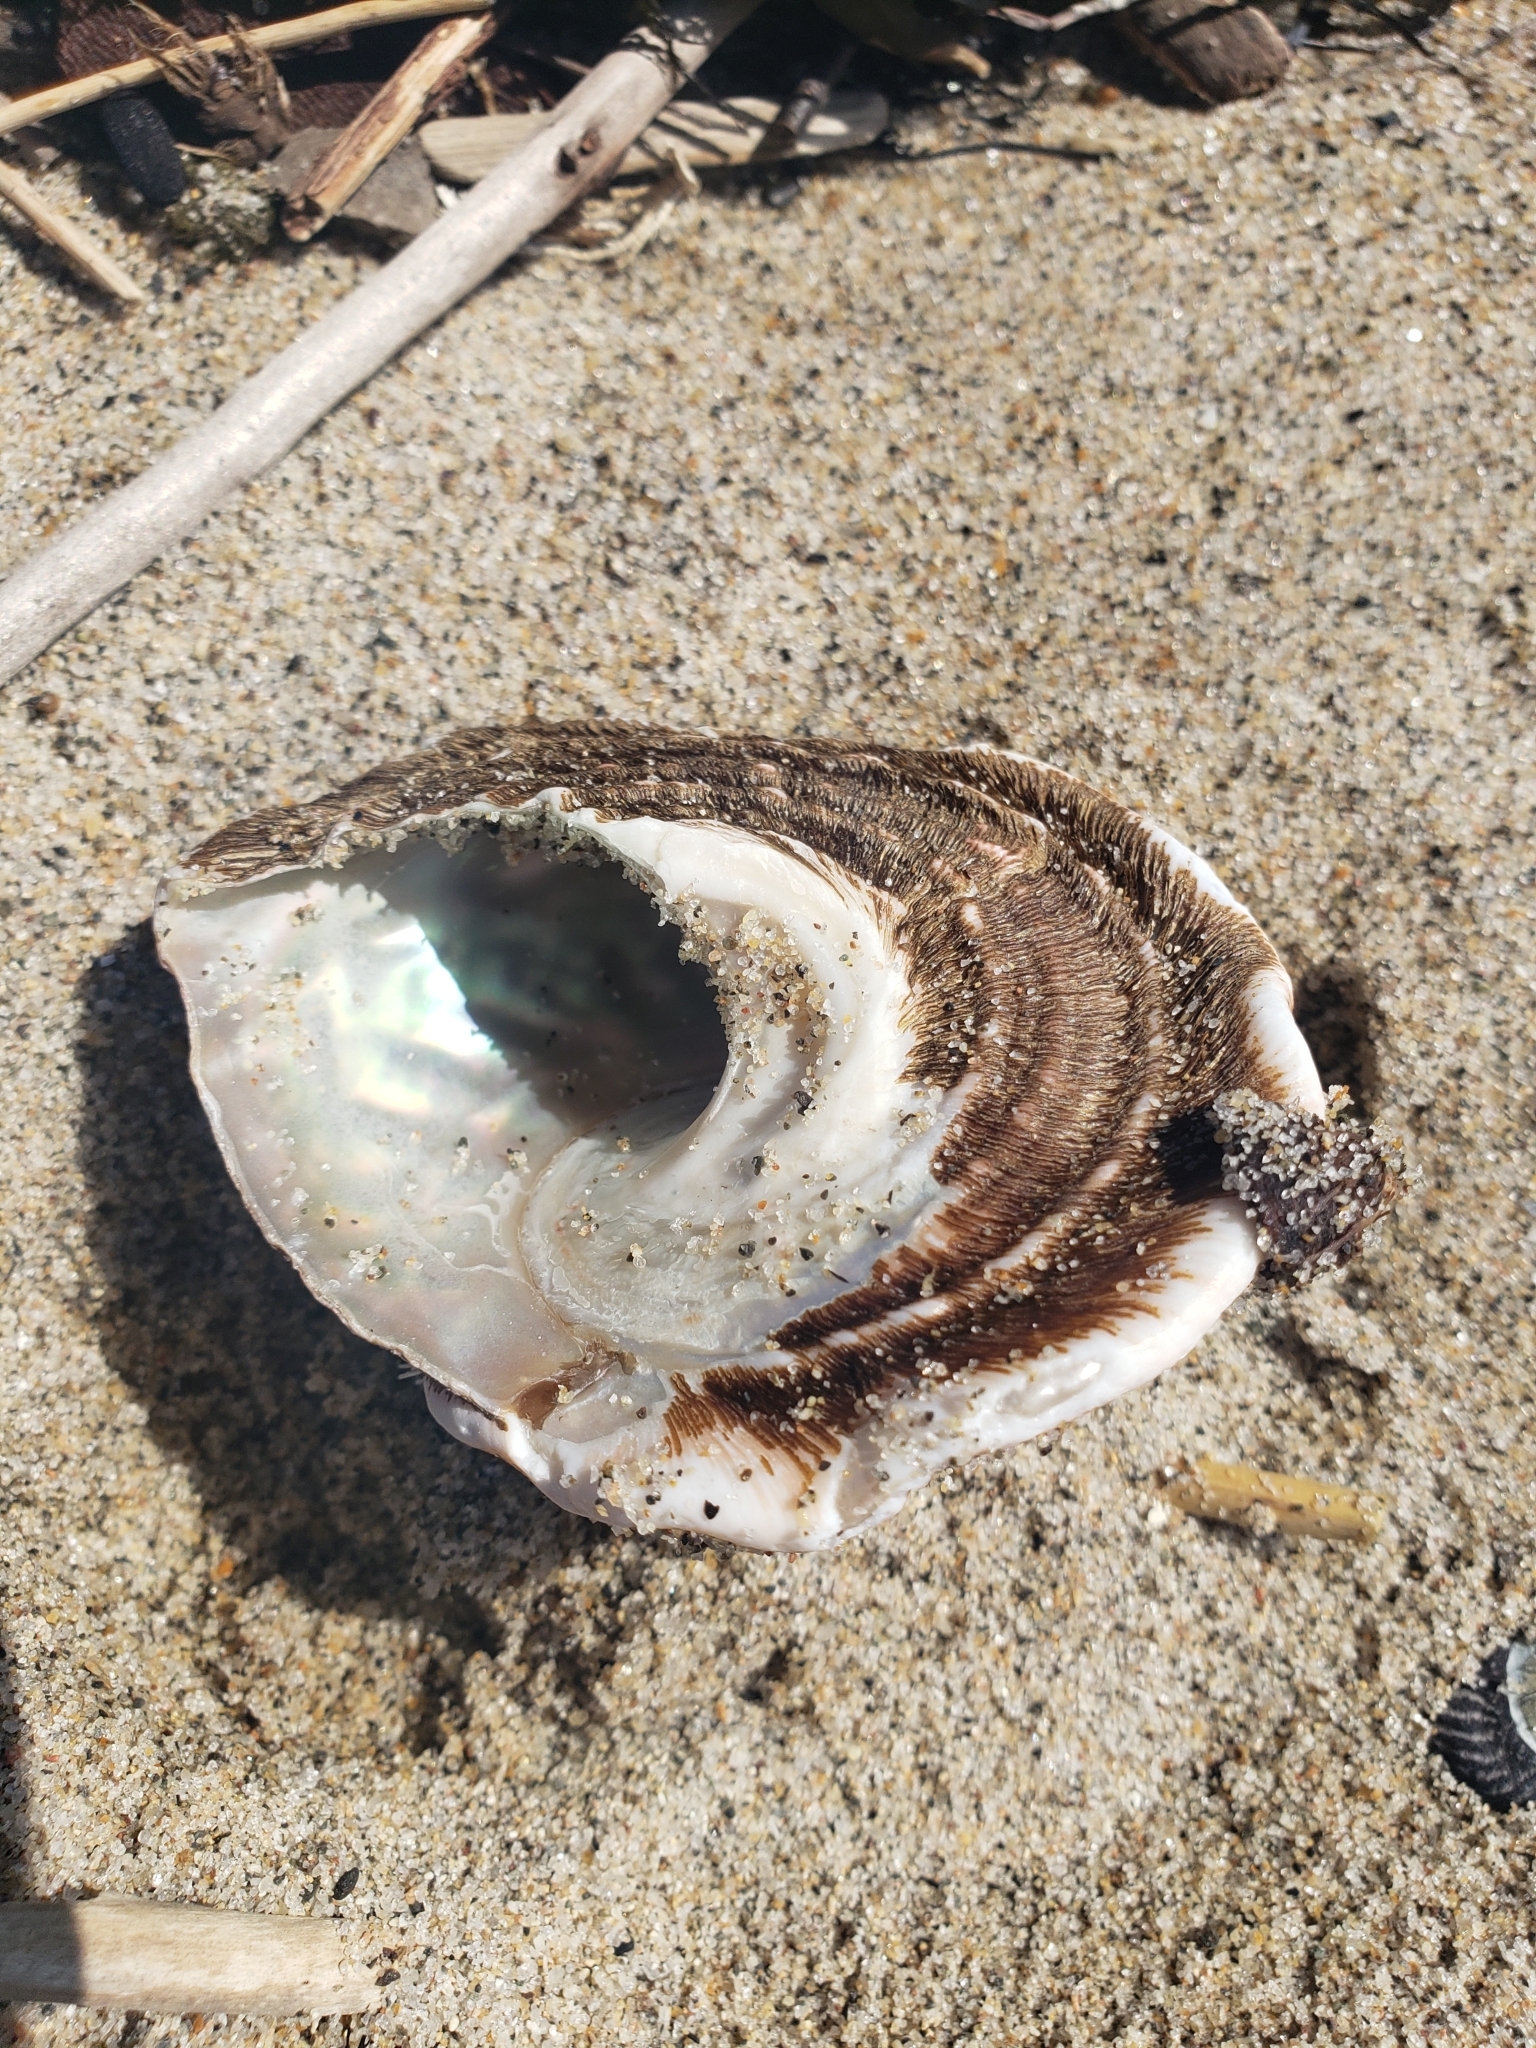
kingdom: Animalia
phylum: Mollusca
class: Gastropoda
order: Trochida
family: Turbinidae
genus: Megastraea
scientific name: Megastraea undosa
